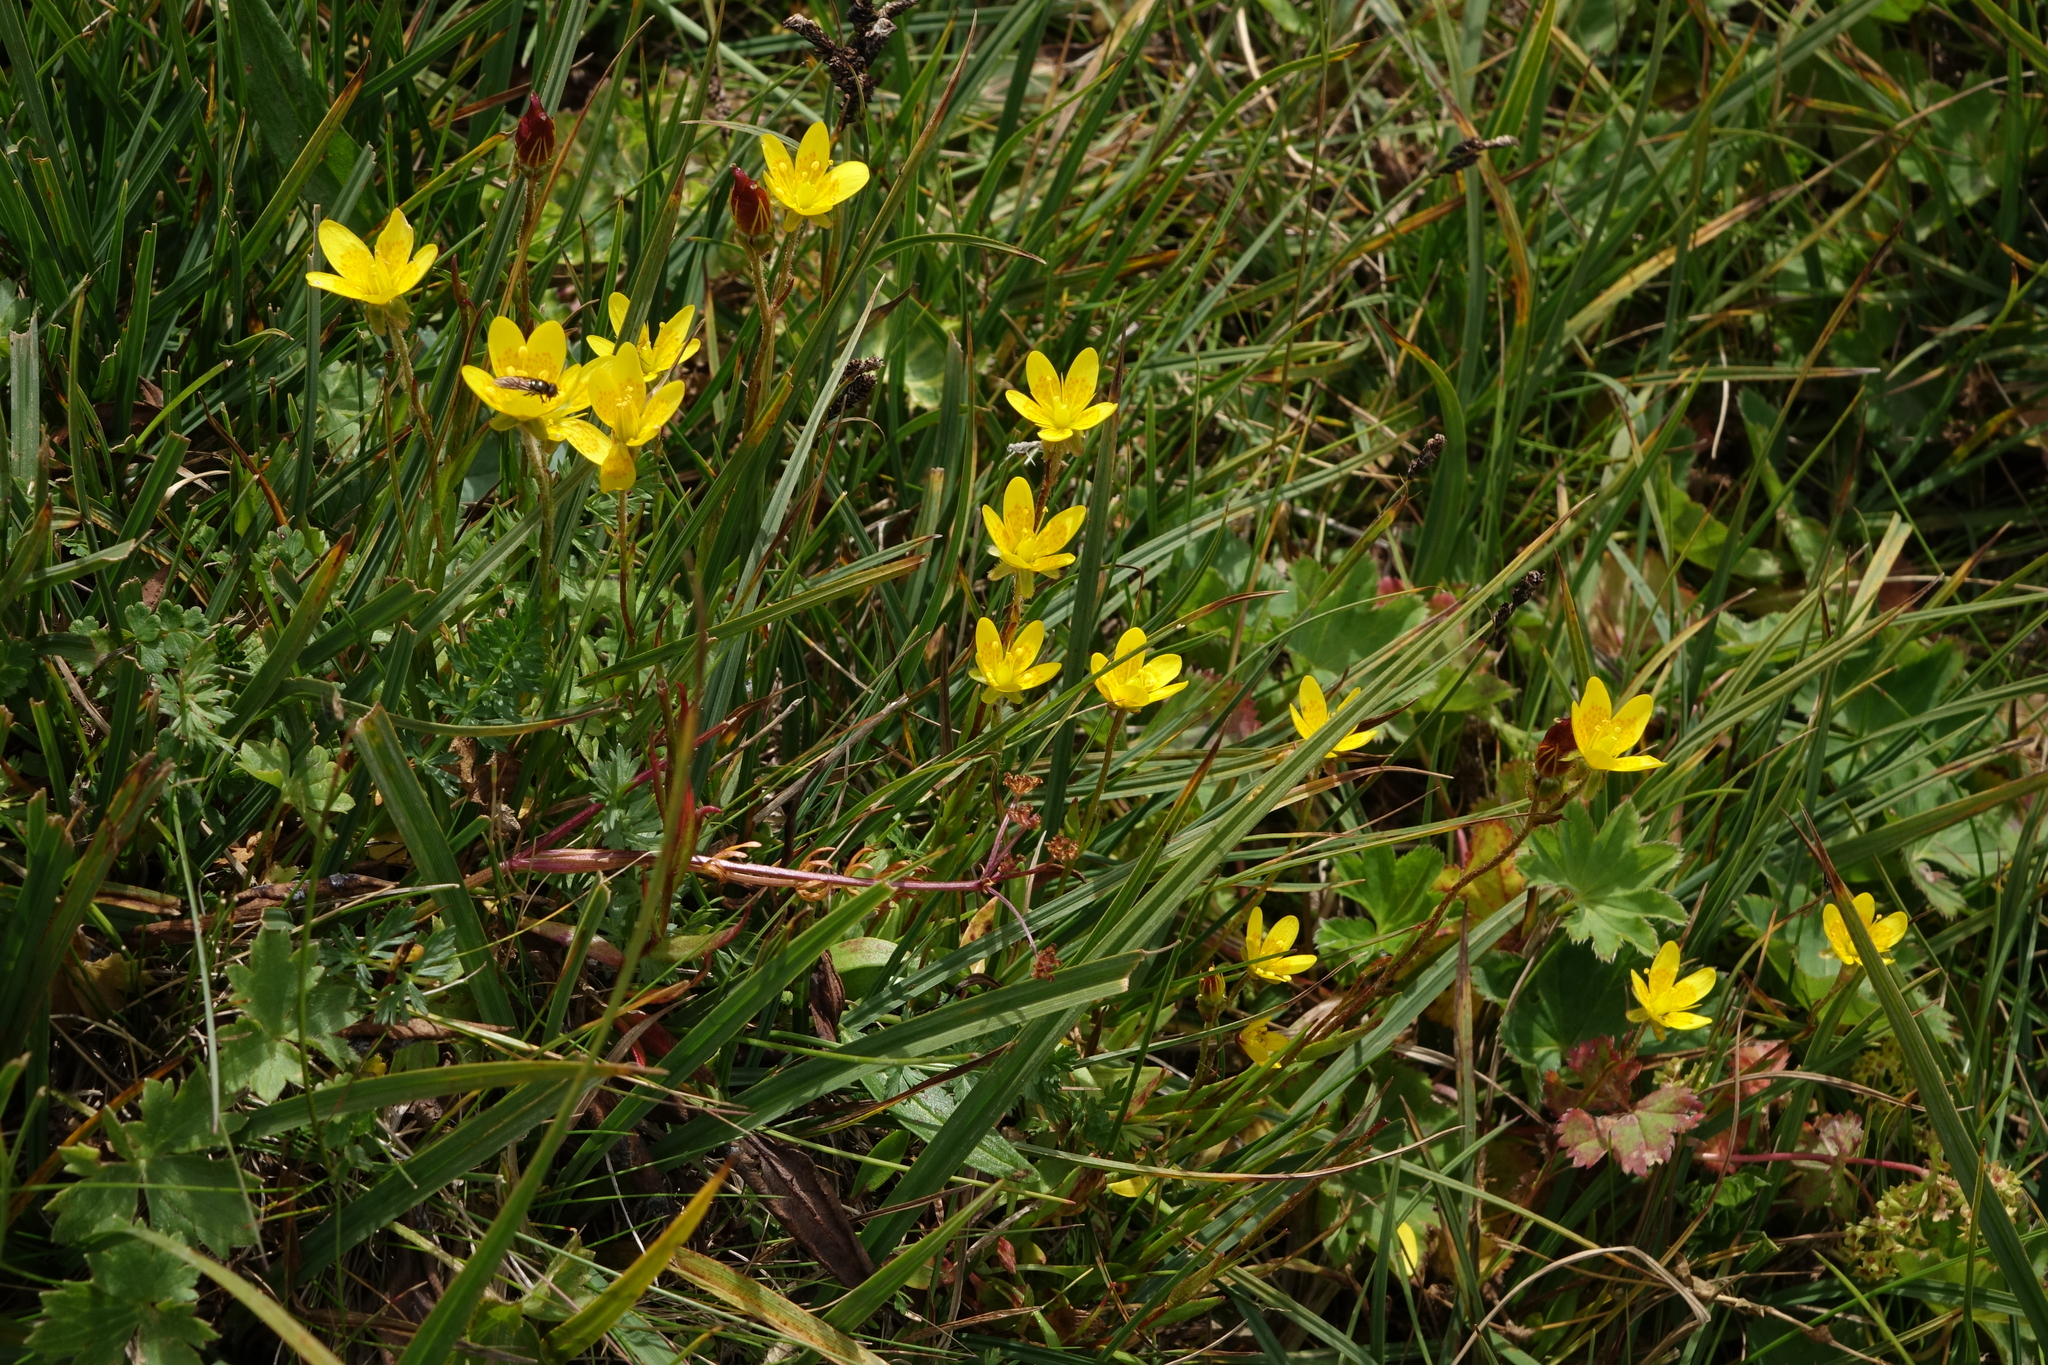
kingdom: Plantae
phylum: Tracheophyta
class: Magnoliopsida
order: Saxifragales
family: Saxifragaceae
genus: Saxifraga
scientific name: Saxifraga hirculus
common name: Yellow marsh saxifrage
